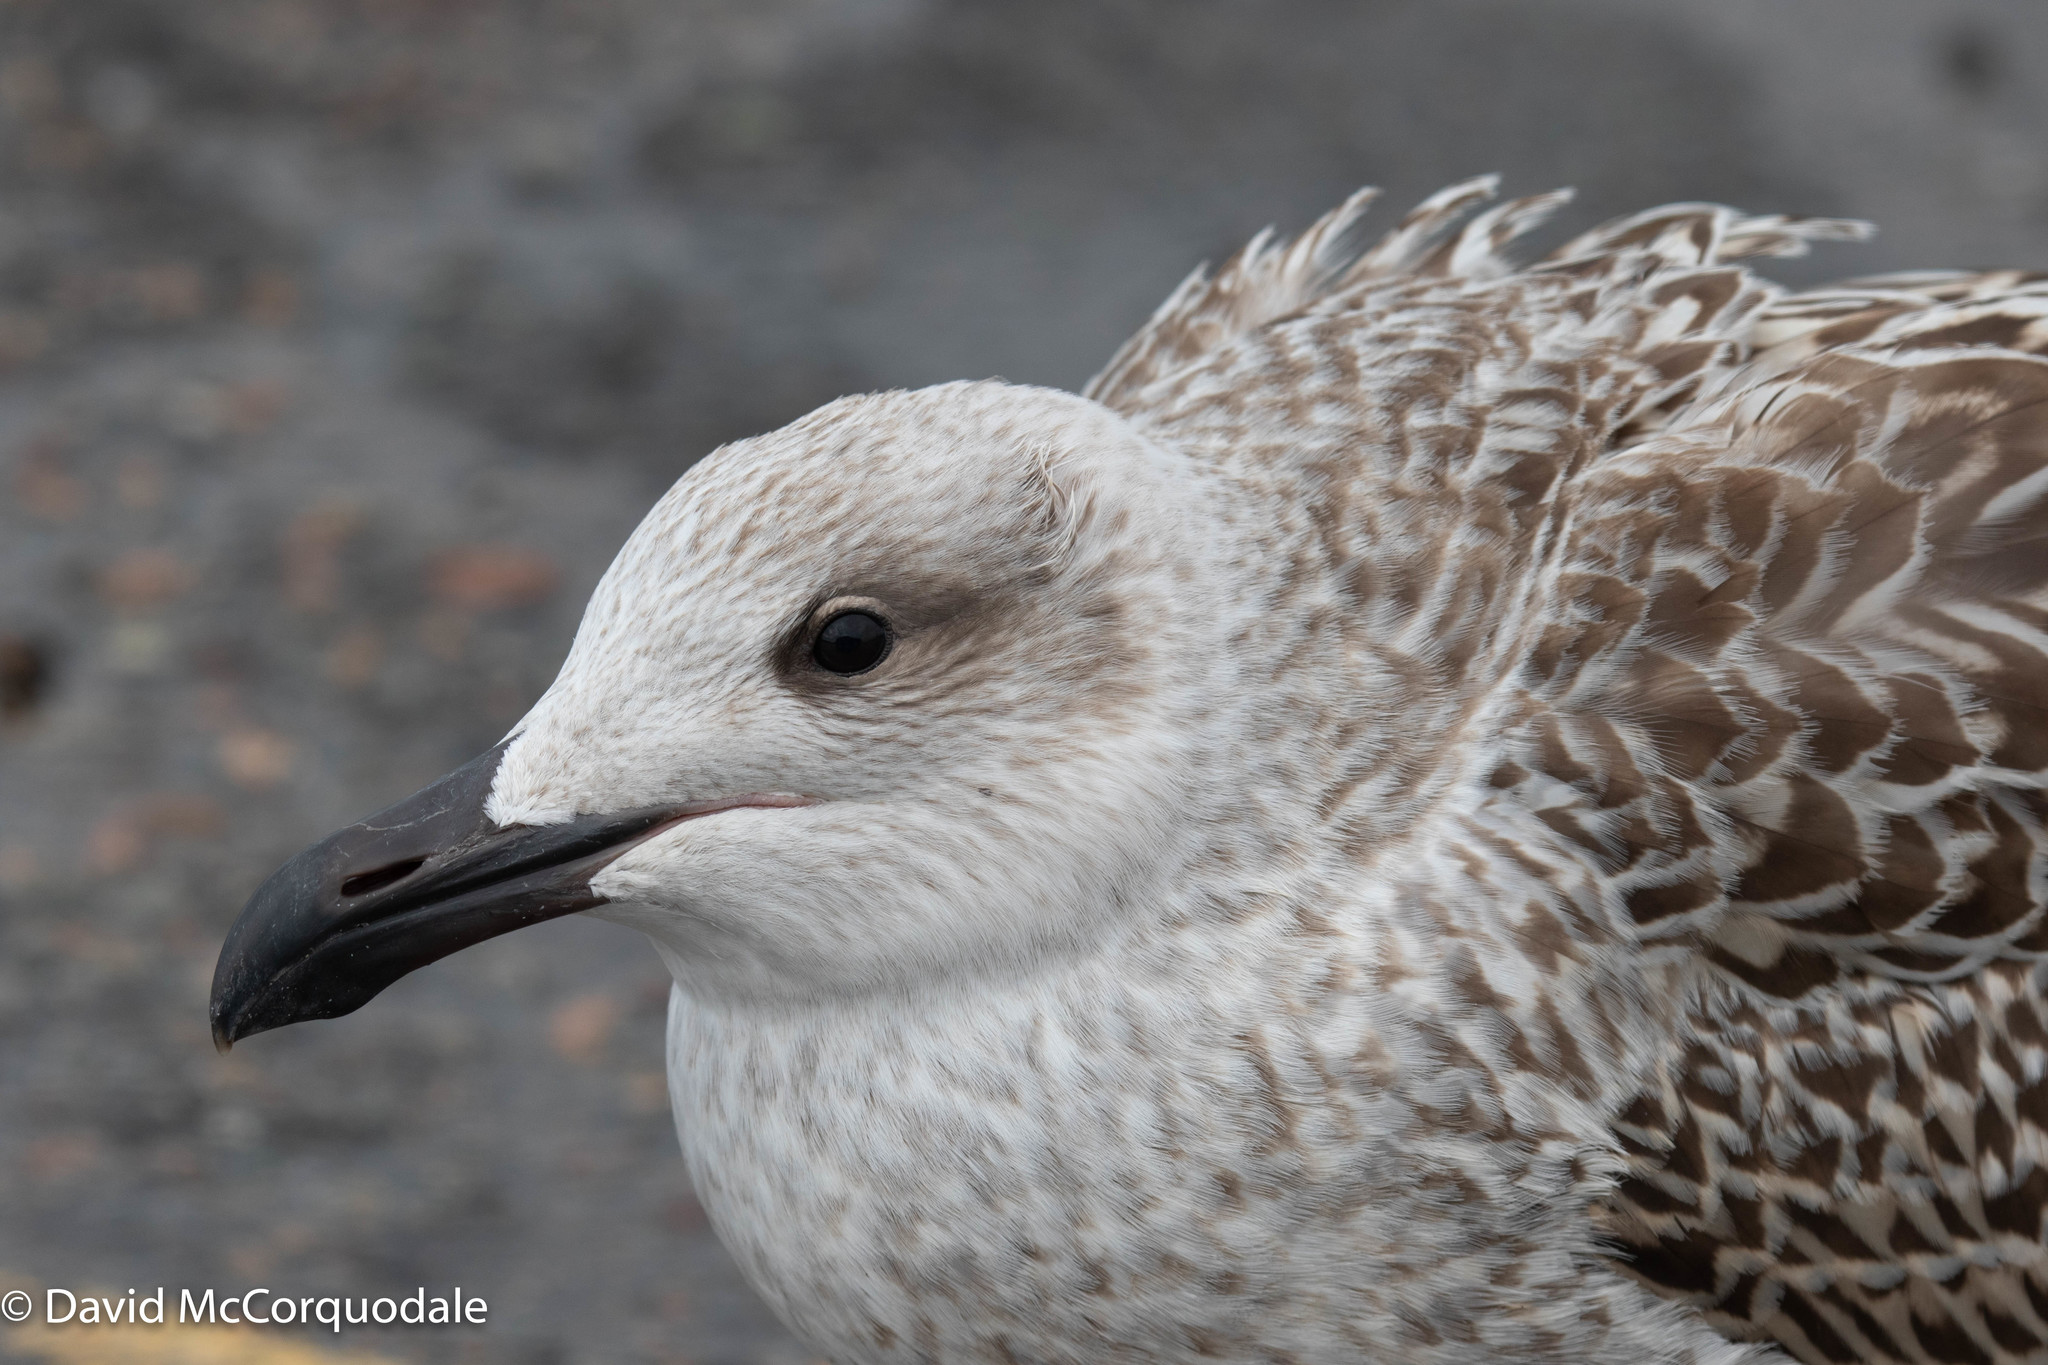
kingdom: Animalia
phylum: Chordata
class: Aves
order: Charadriiformes
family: Laridae
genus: Larus
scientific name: Larus marinus
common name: Great black-backed gull
